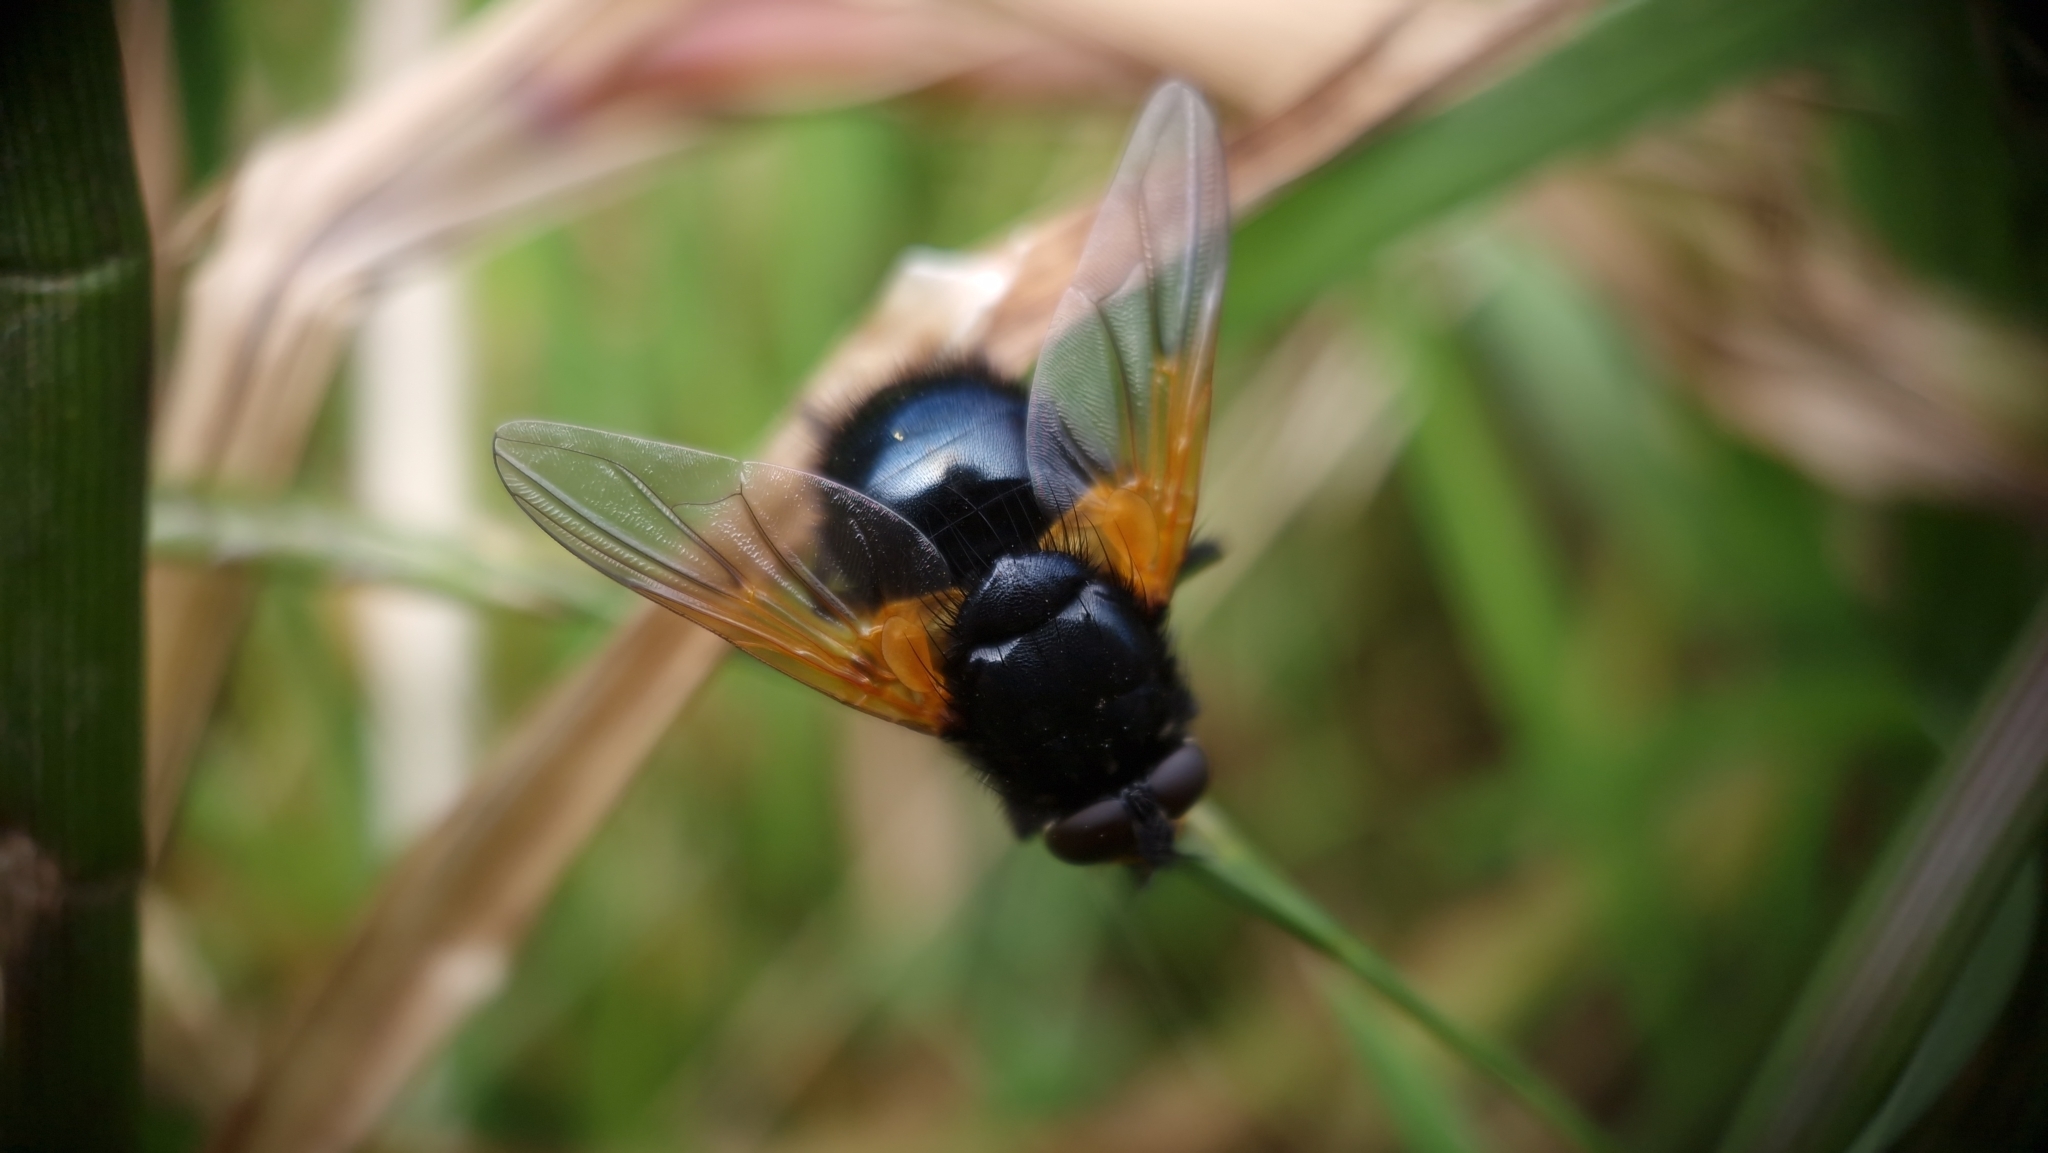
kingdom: Animalia
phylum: Arthropoda
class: Insecta
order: Diptera
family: Muscidae
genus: Mesembrina
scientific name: Mesembrina meridiana
